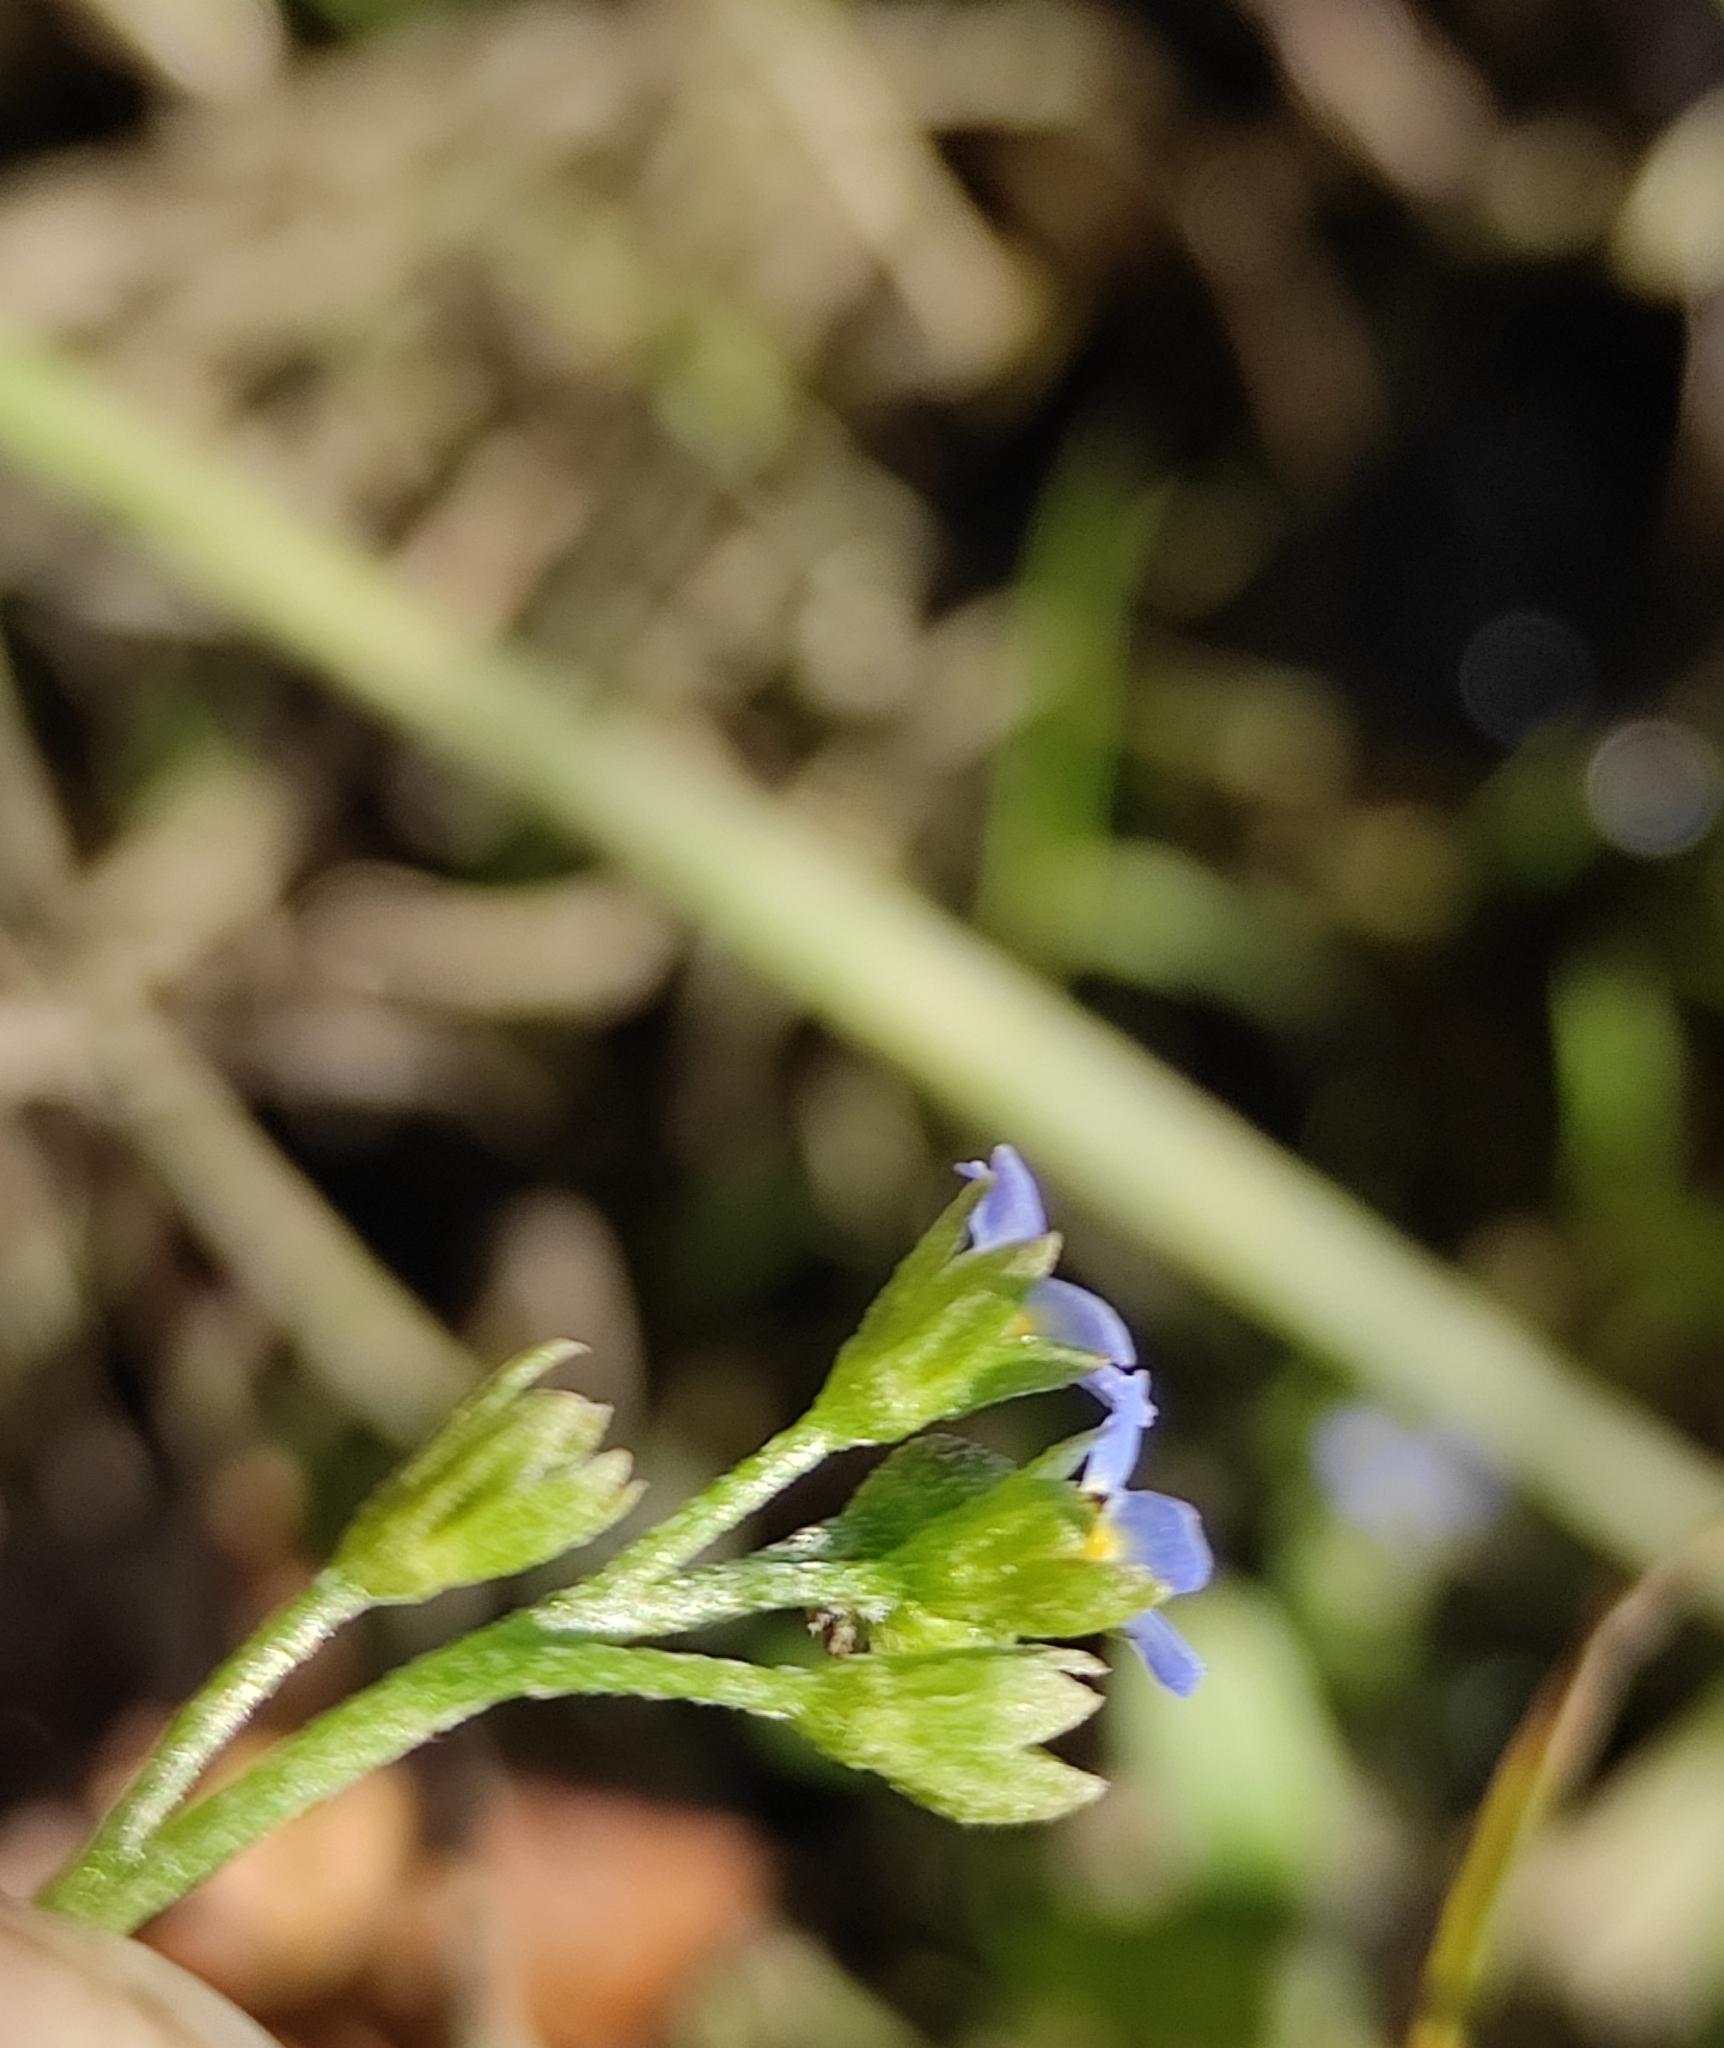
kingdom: Plantae
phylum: Tracheophyta
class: Magnoliopsida
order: Boraginales
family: Boraginaceae
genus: Myosotis
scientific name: Myosotis laxa
